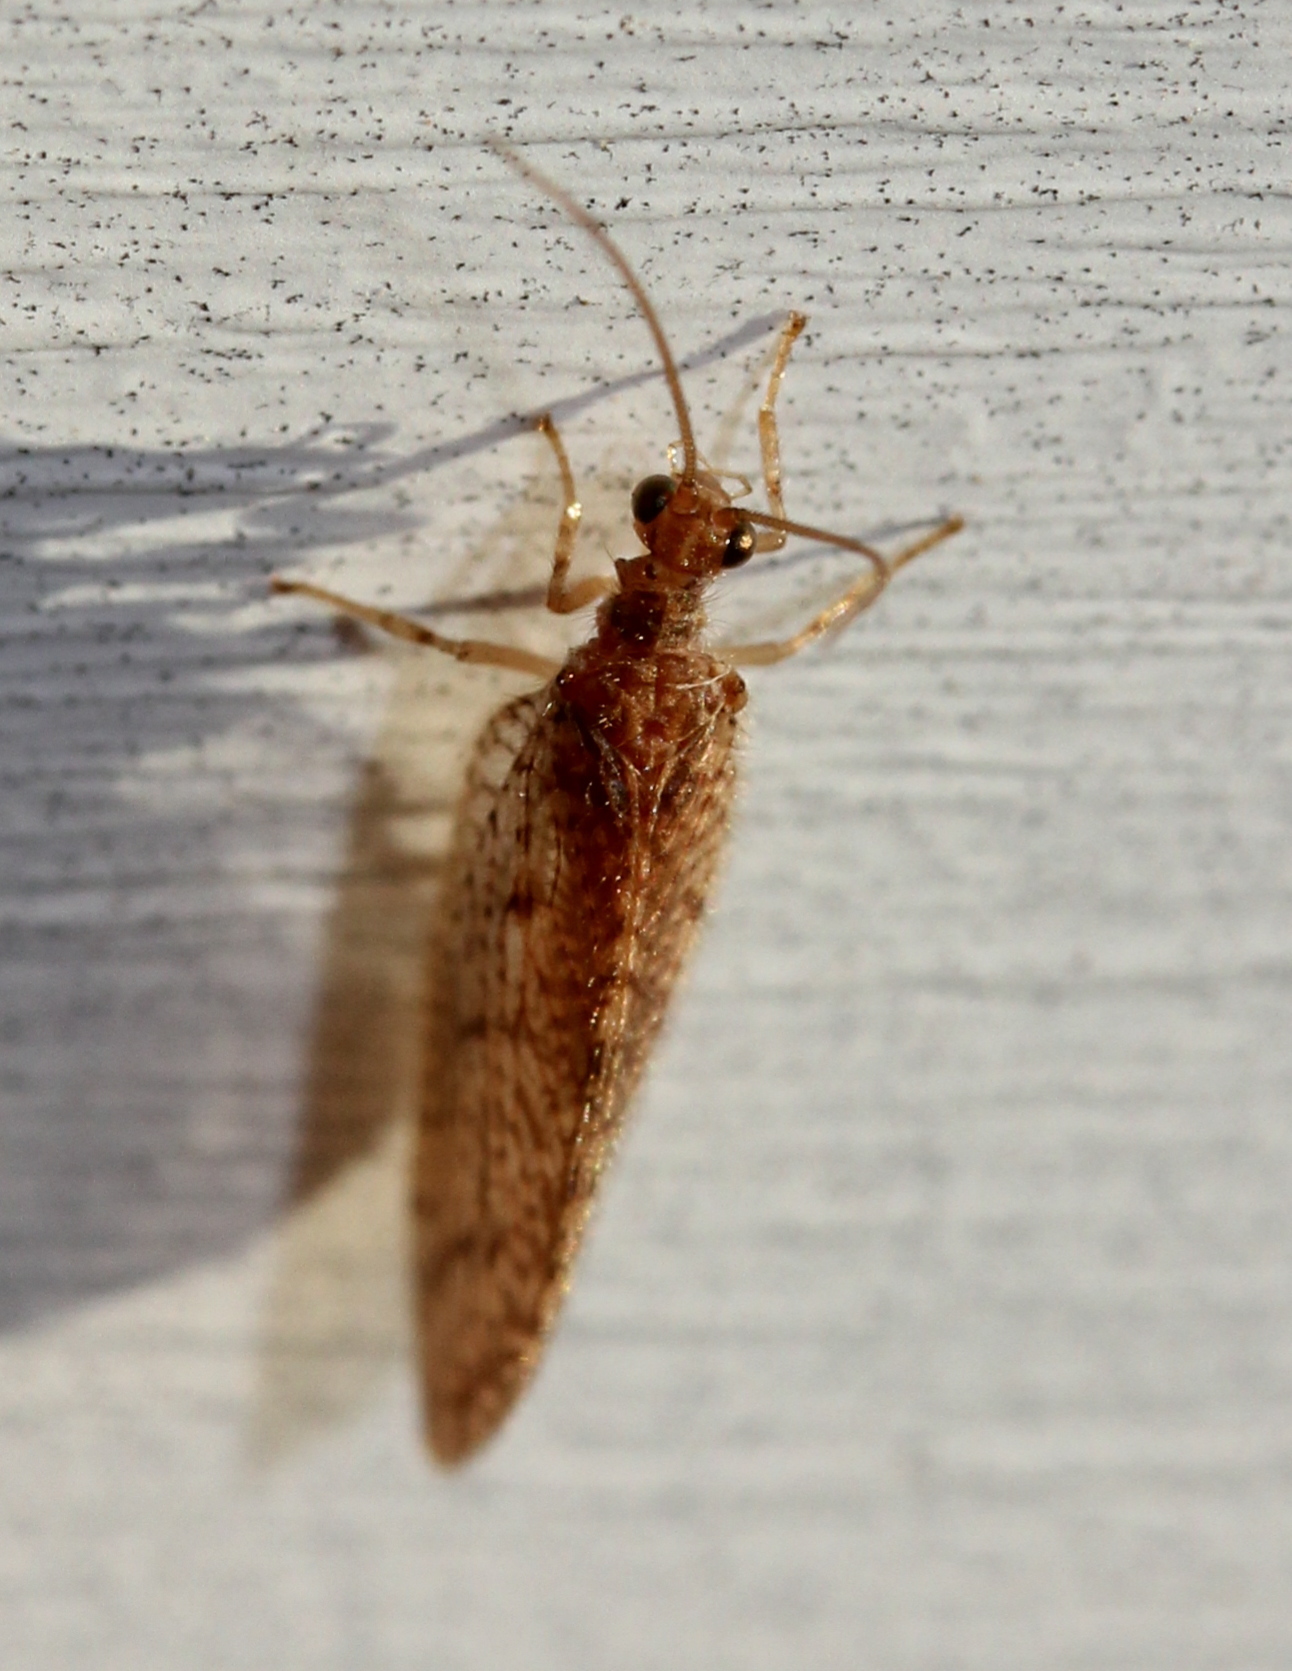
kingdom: Animalia
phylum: Arthropoda
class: Insecta
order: Neuroptera
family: Hemerobiidae
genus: Micromus
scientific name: Micromus posticus
